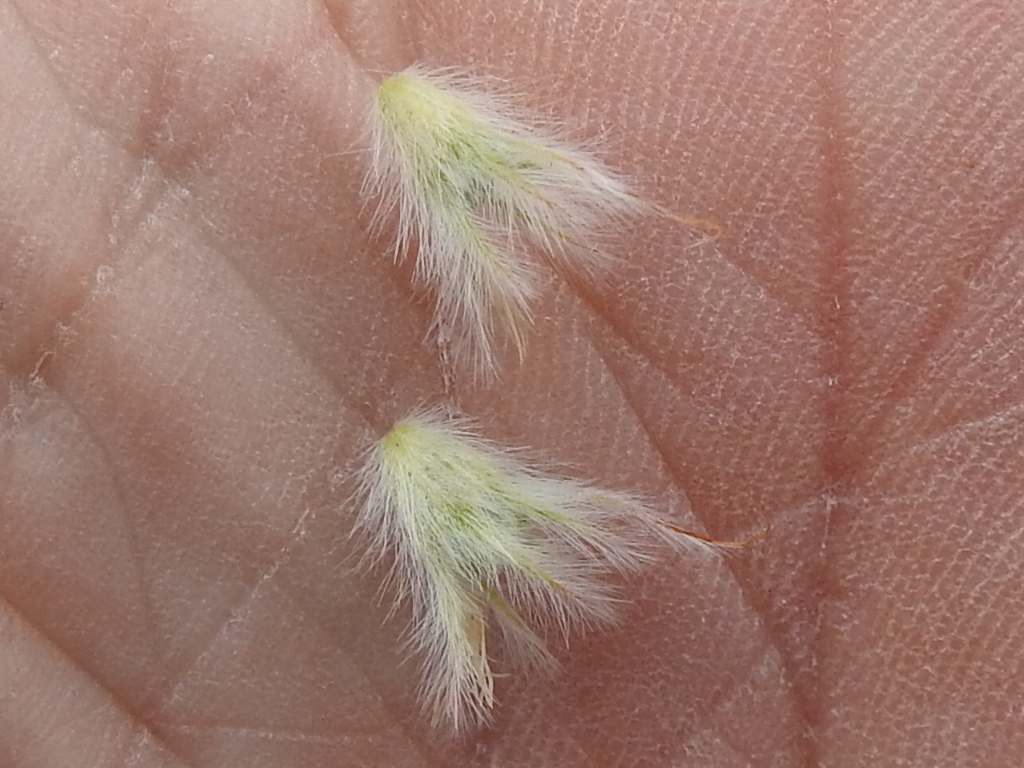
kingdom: Plantae
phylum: Tracheophyta
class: Magnoliopsida
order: Fabales
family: Fabaceae
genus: Dalea
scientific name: Dalea jamesii
